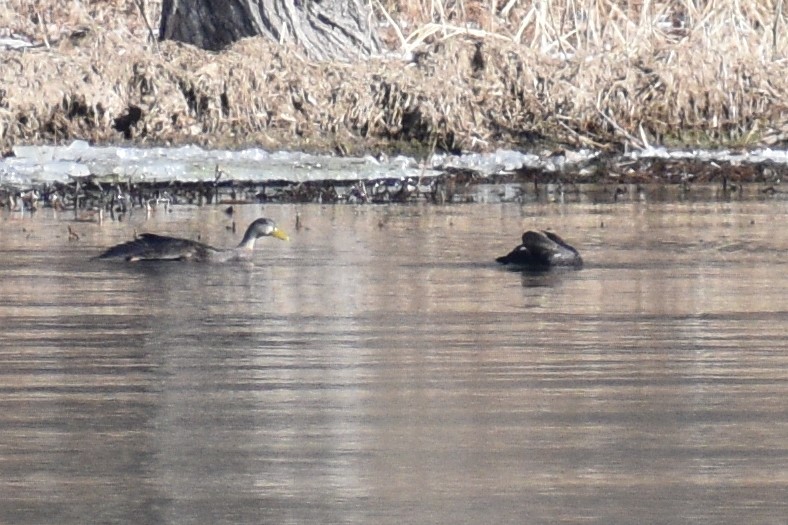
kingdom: Animalia
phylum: Chordata
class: Aves
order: Anseriformes
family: Anatidae
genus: Anas
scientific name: Anas rubripes
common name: American black duck
